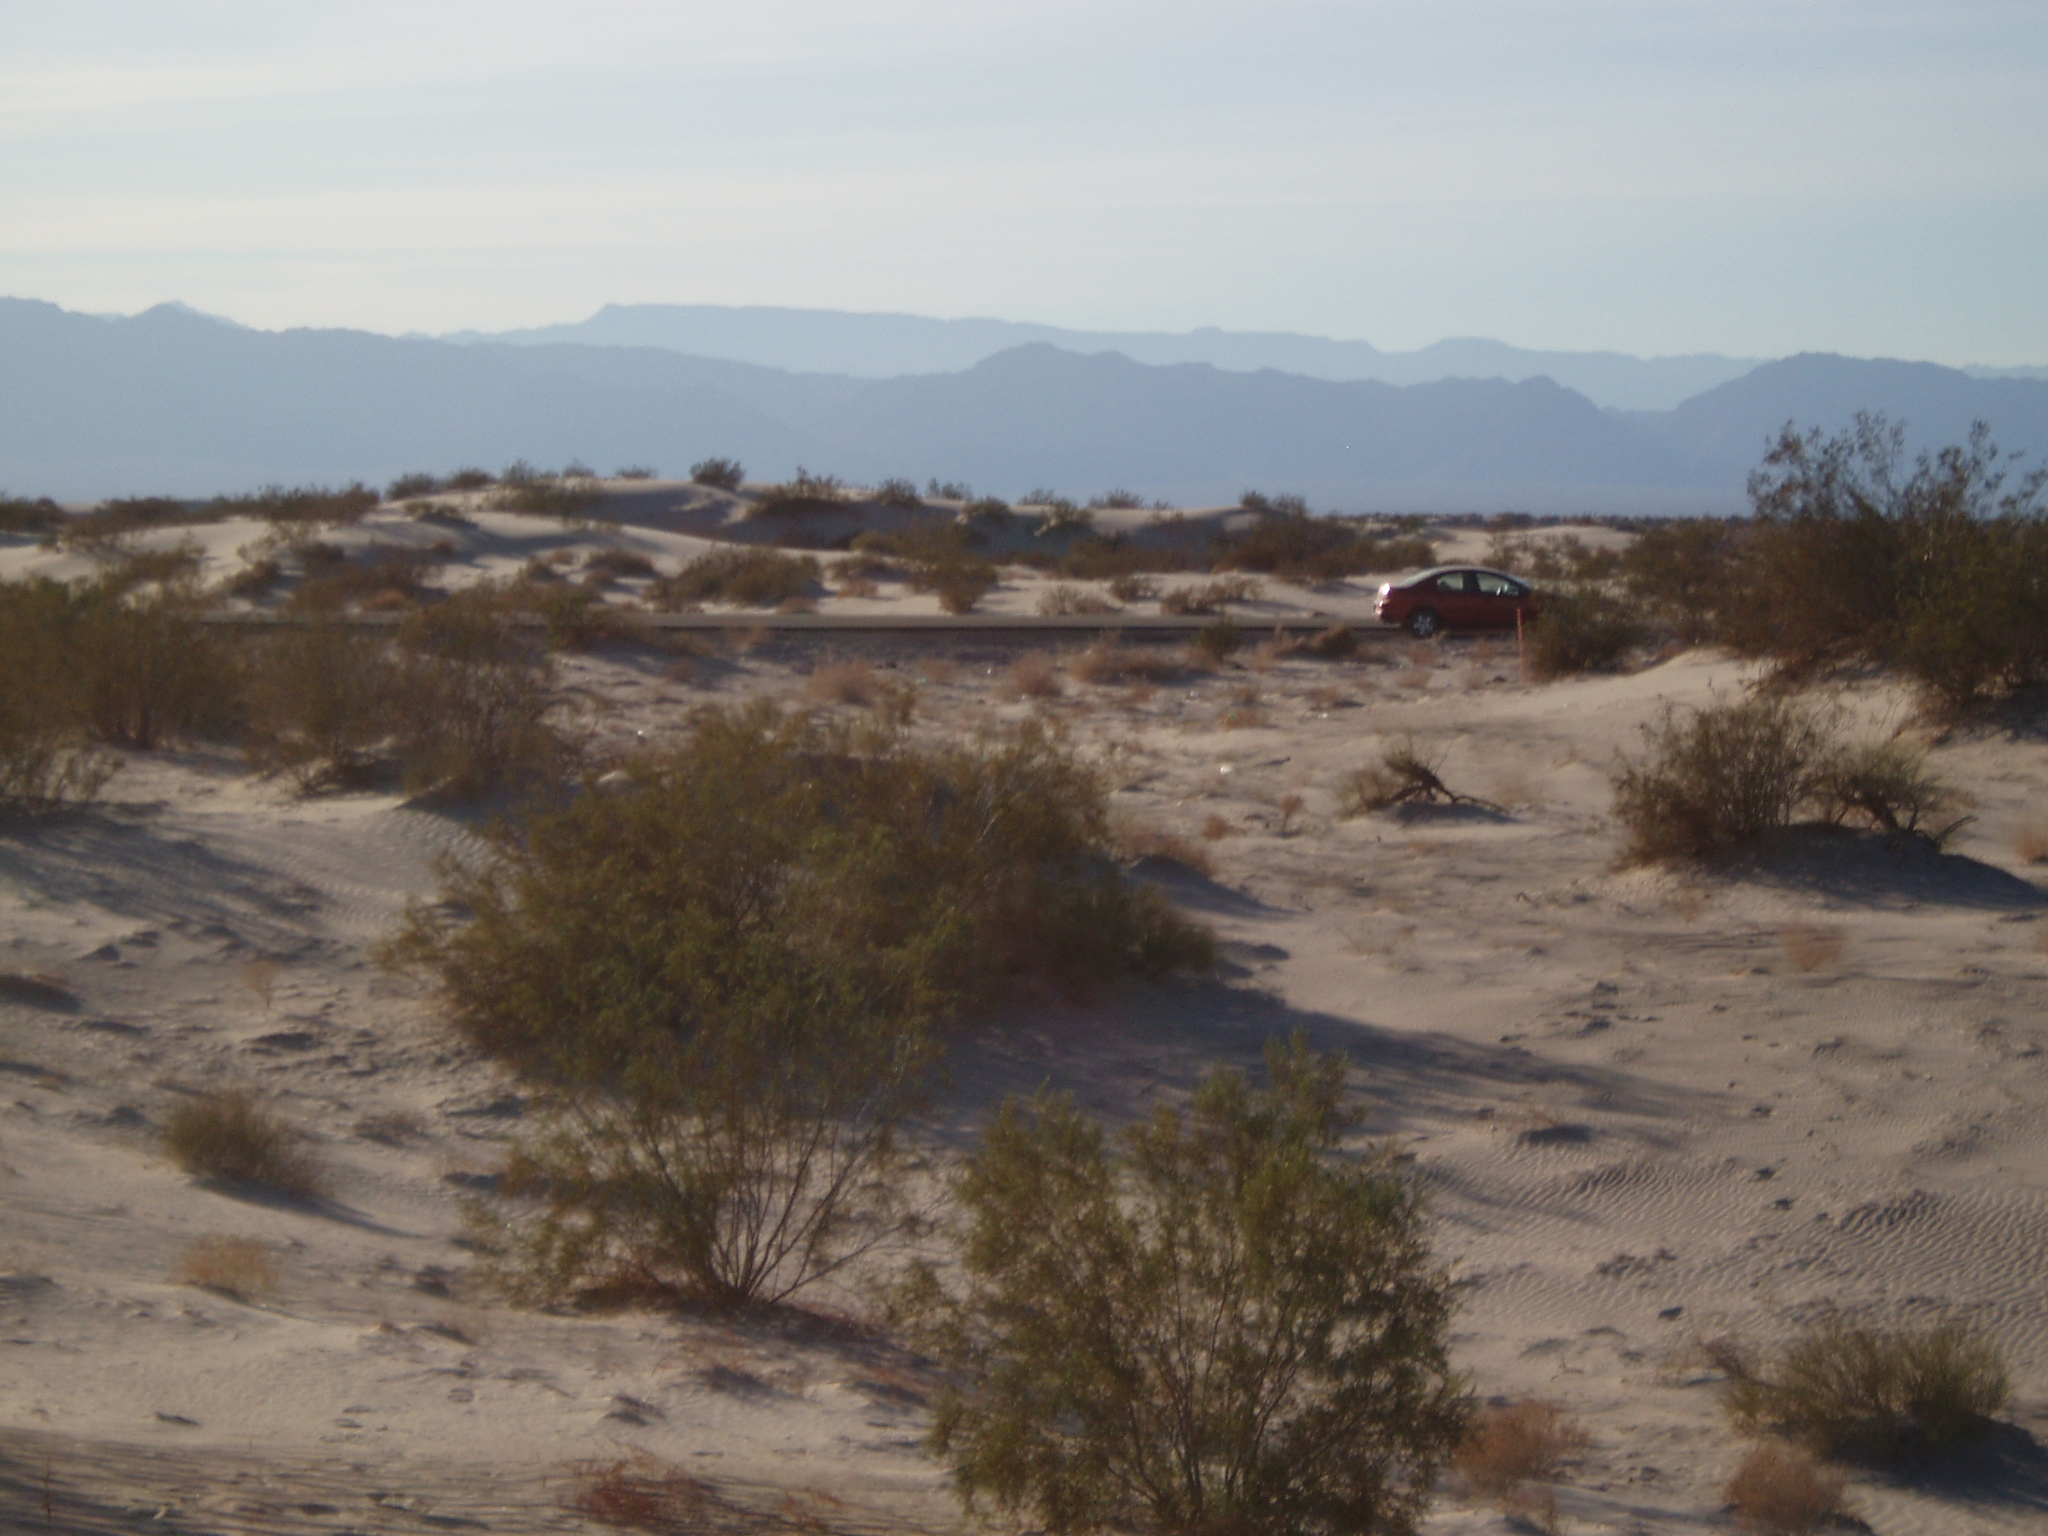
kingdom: Plantae
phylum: Tracheophyta
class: Magnoliopsida
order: Zygophyllales
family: Zygophyllaceae
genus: Larrea
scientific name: Larrea tridentata
